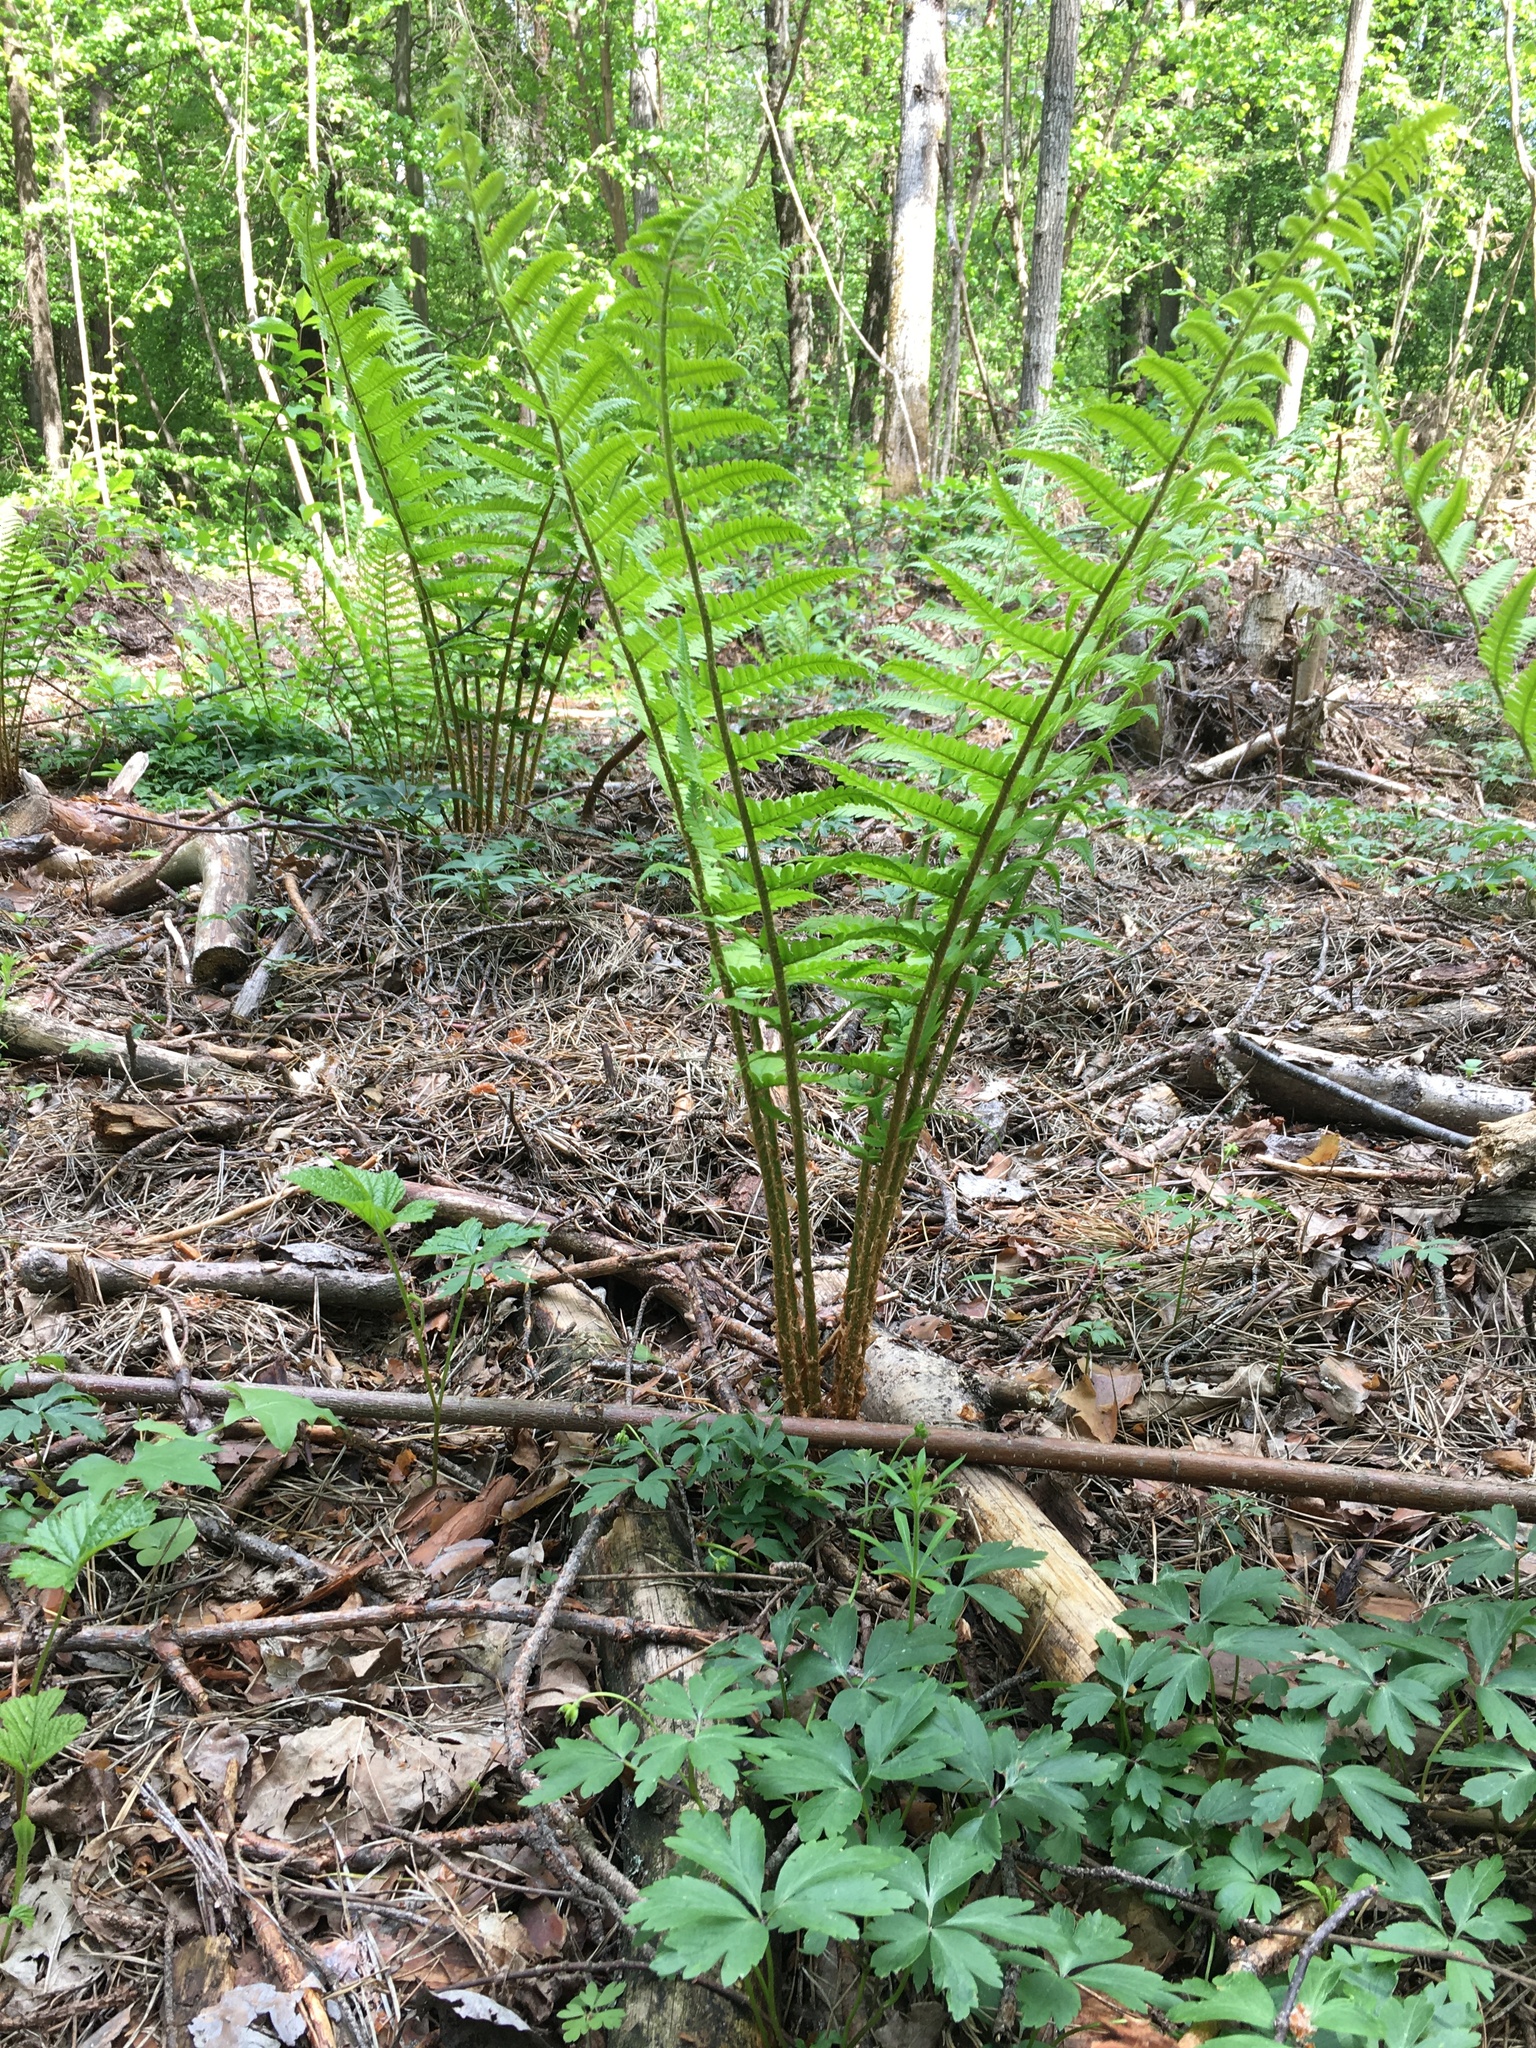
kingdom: Plantae
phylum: Tracheophyta
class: Polypodiopsida
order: Polypodiales
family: Dryopteridaceae
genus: Dryopteris
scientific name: Dryopteris filix-mas
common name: Male fern
